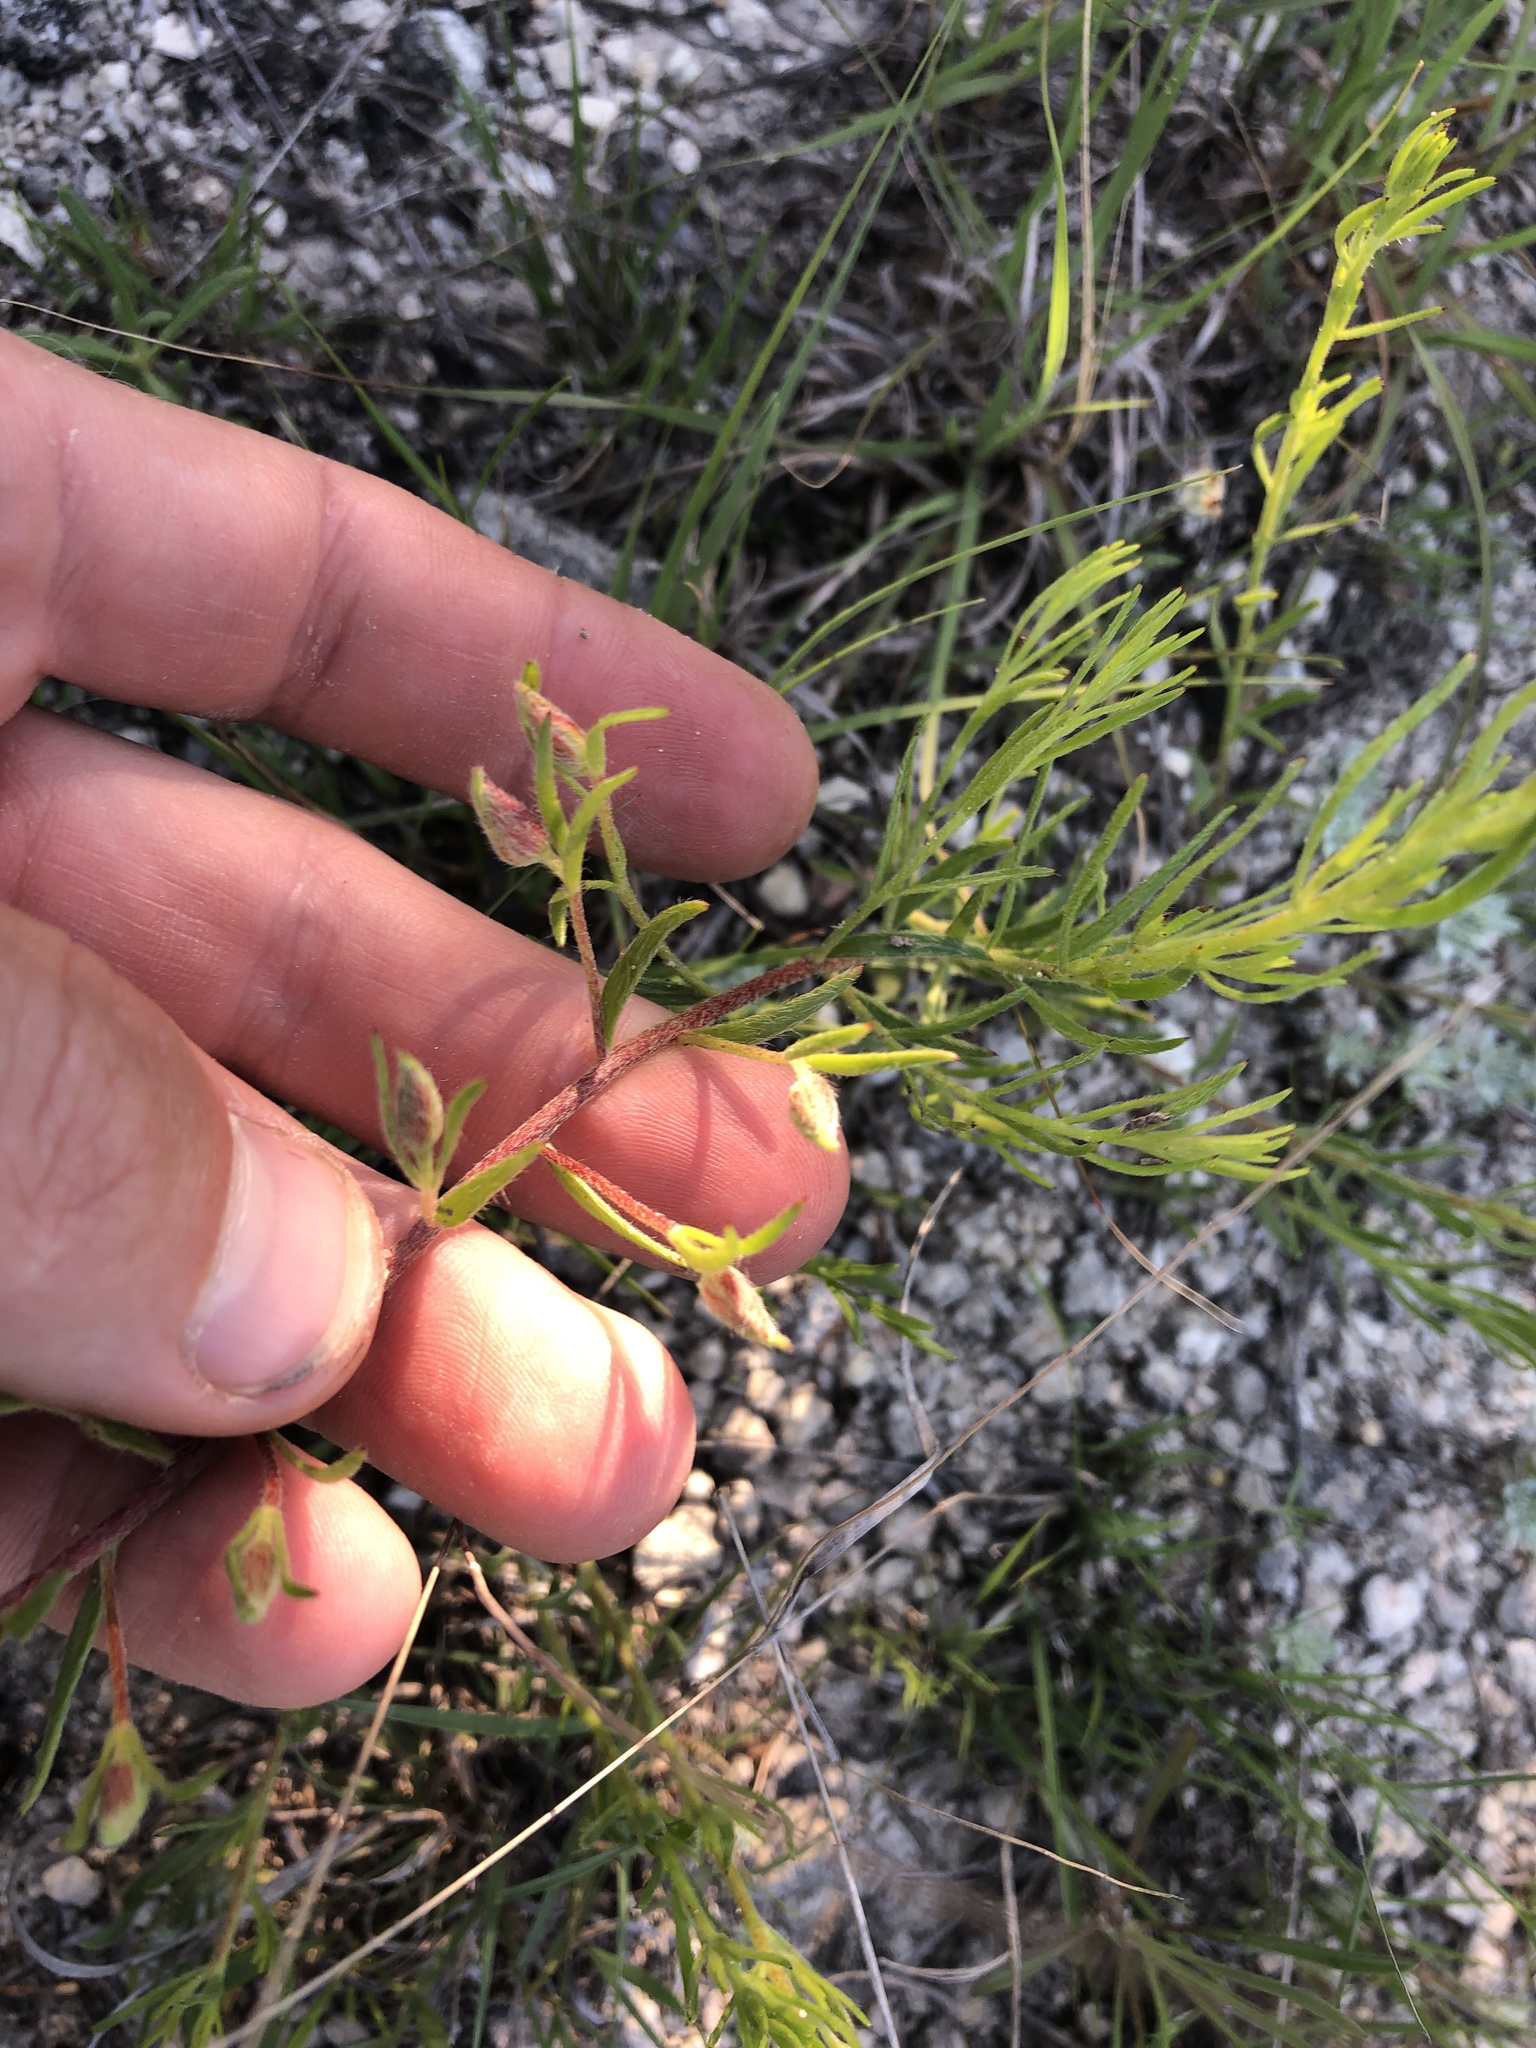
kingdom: Plantae
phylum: Tracheophyta
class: Magnoliopsida
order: Zygophyllales
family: Krameriaceae
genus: Krameria
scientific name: Krameria lanceolata
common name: Ratany
